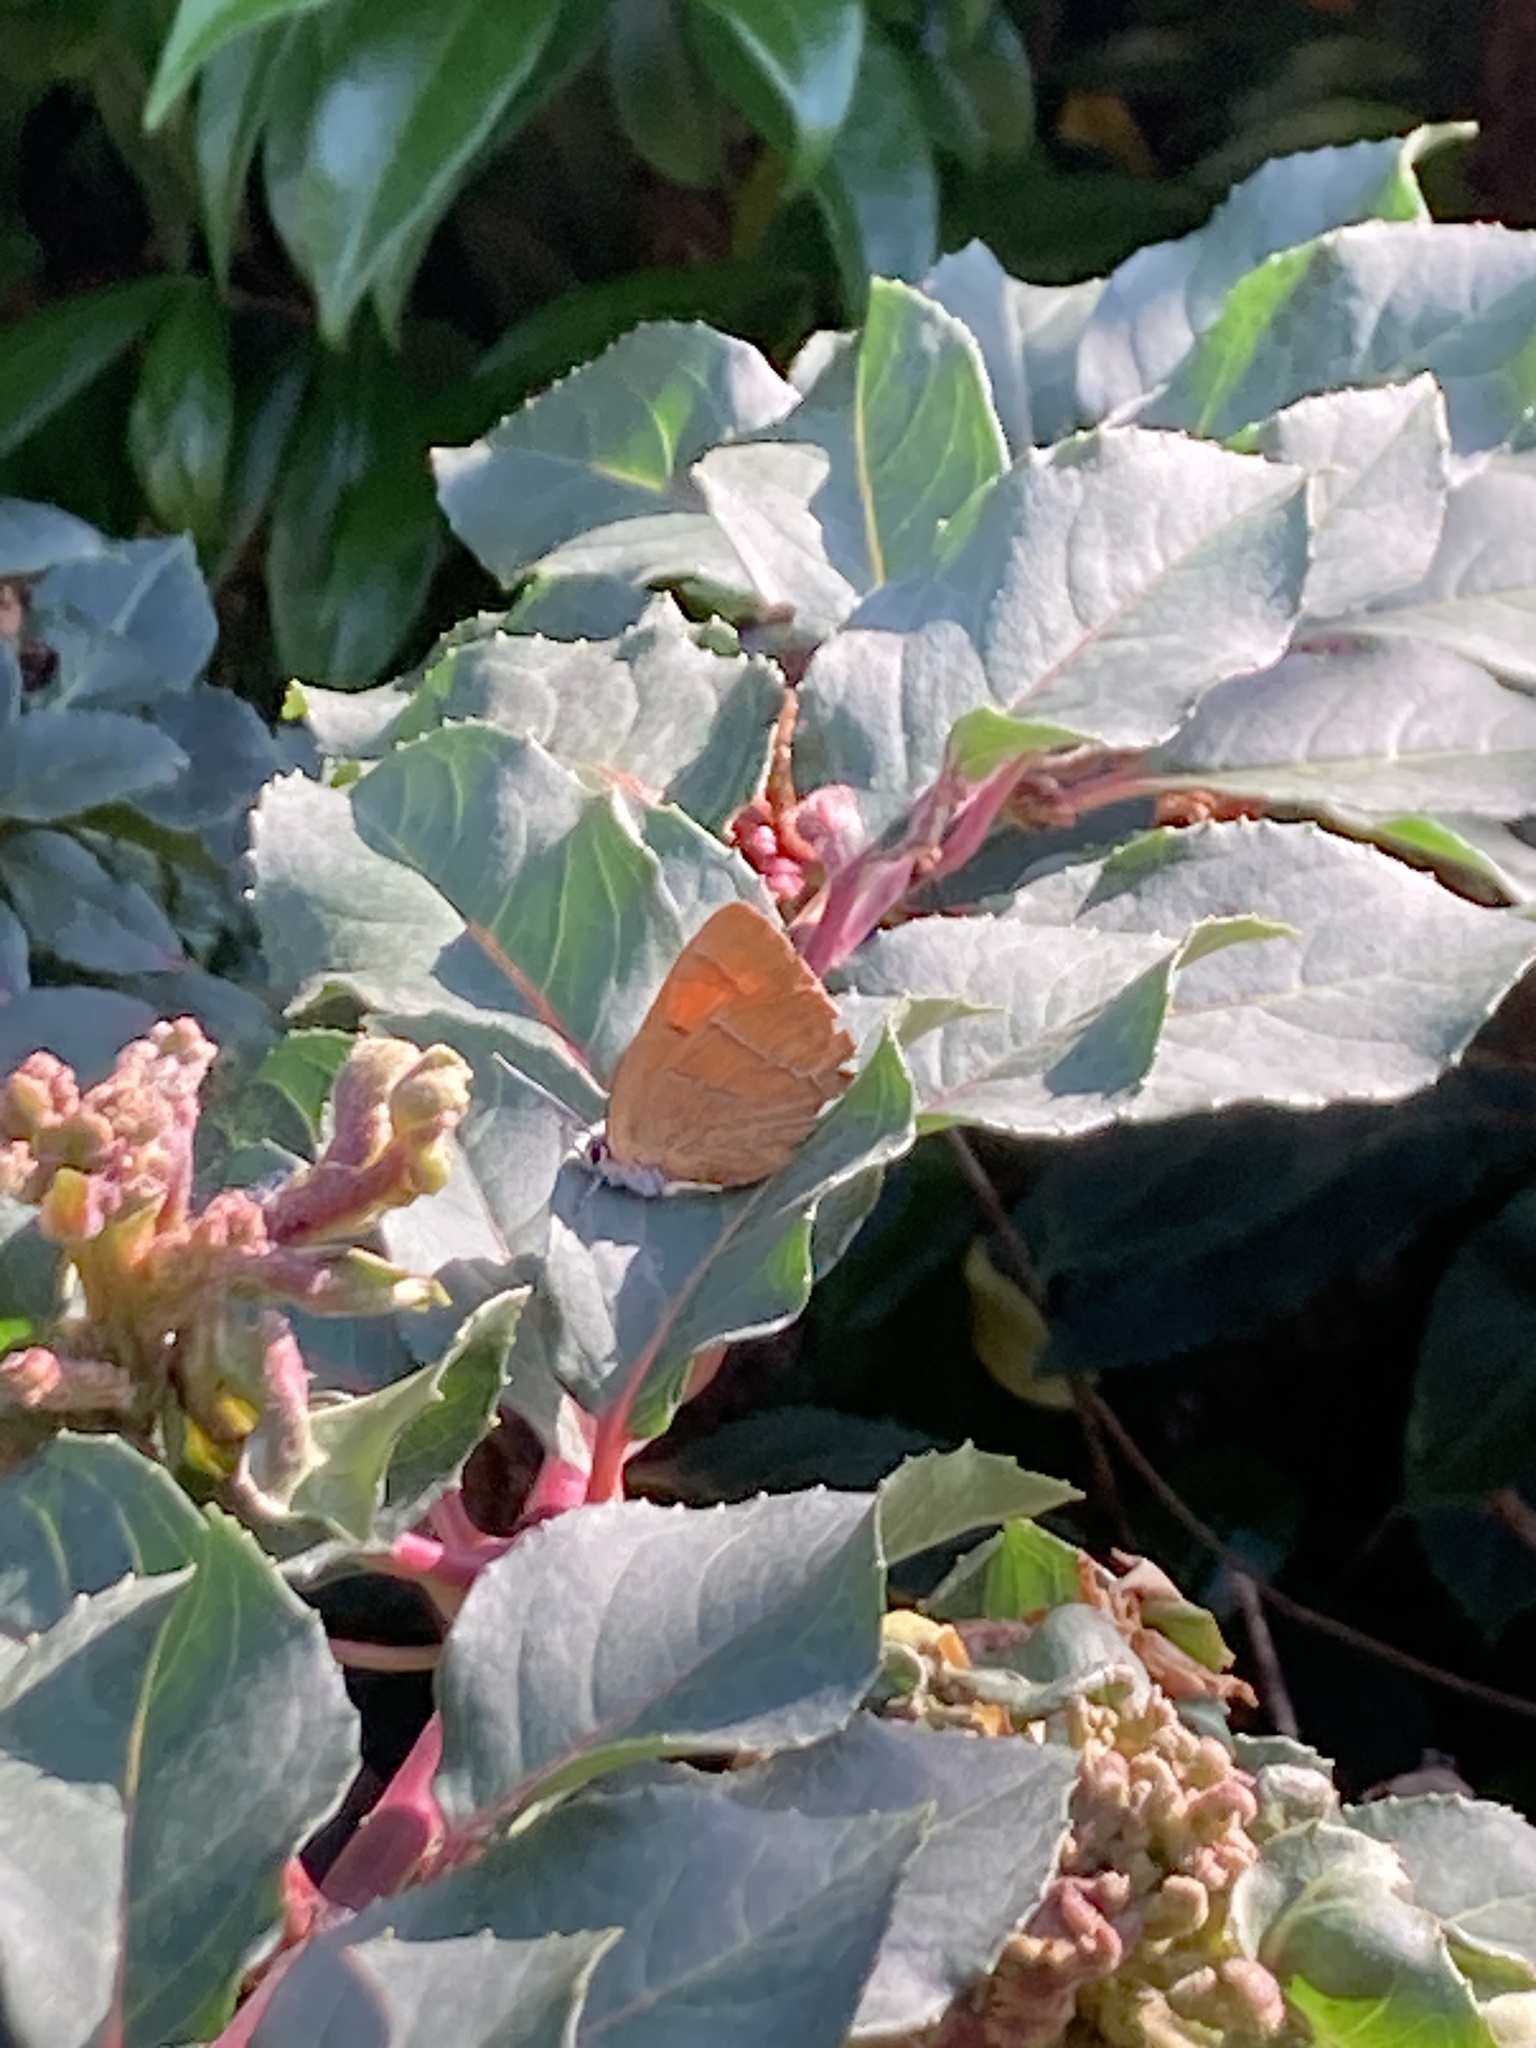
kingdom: Animalia
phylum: Arthropoda
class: Insecta
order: Lepidoptera
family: Lycaenidae
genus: Thecla
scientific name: Thecla betulae
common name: Brown hairstreak
